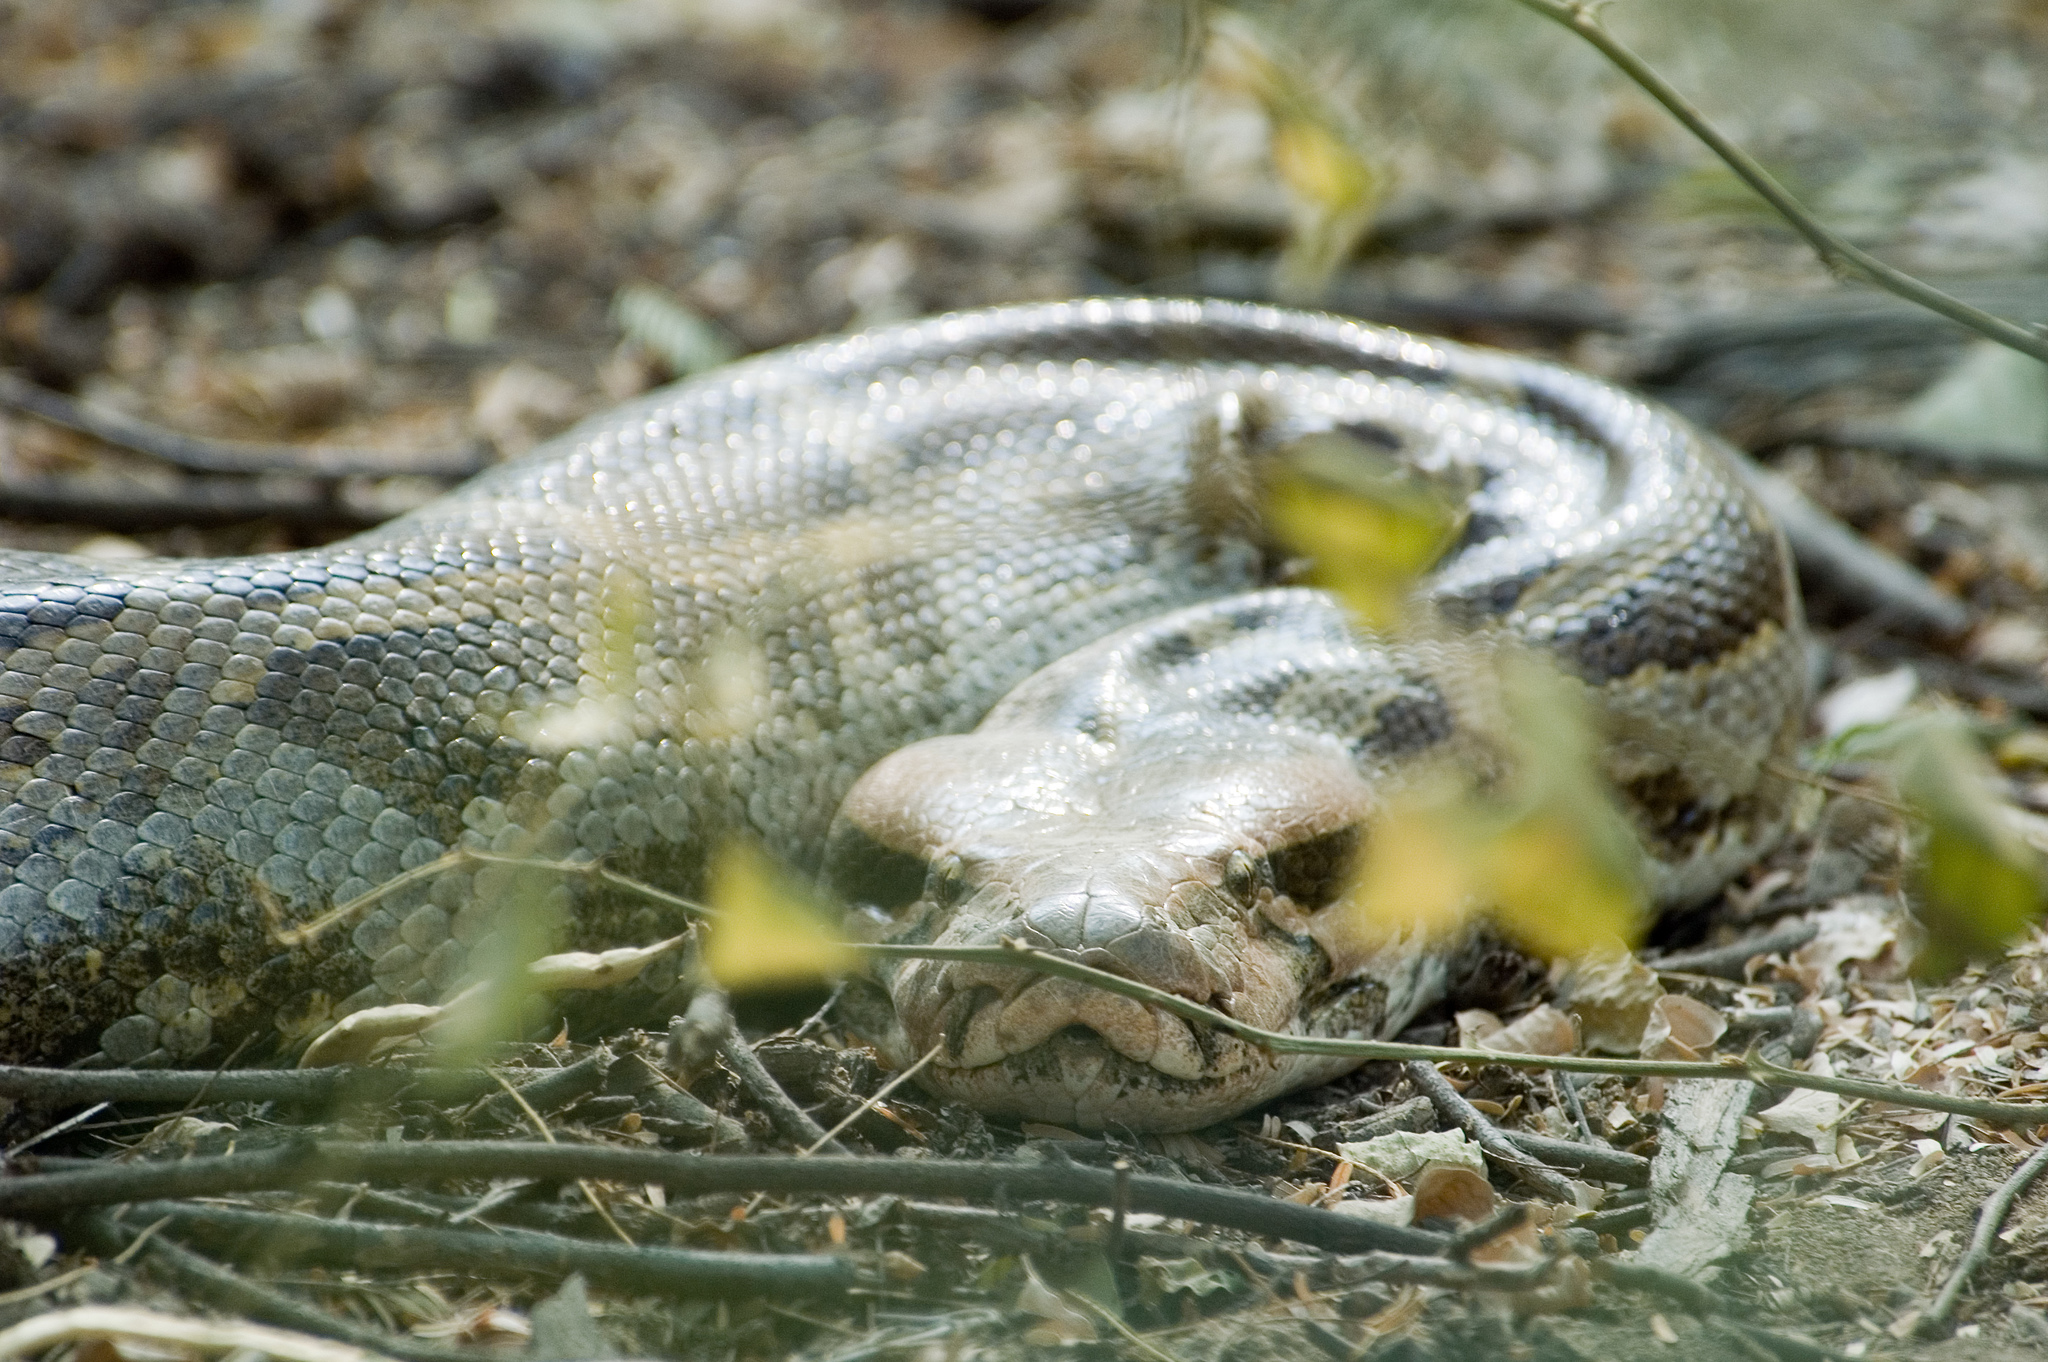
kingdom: Animalia
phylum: Chordata
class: Squamata
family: Pythonidae
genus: Python
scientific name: Python molurus
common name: Indian rock python
